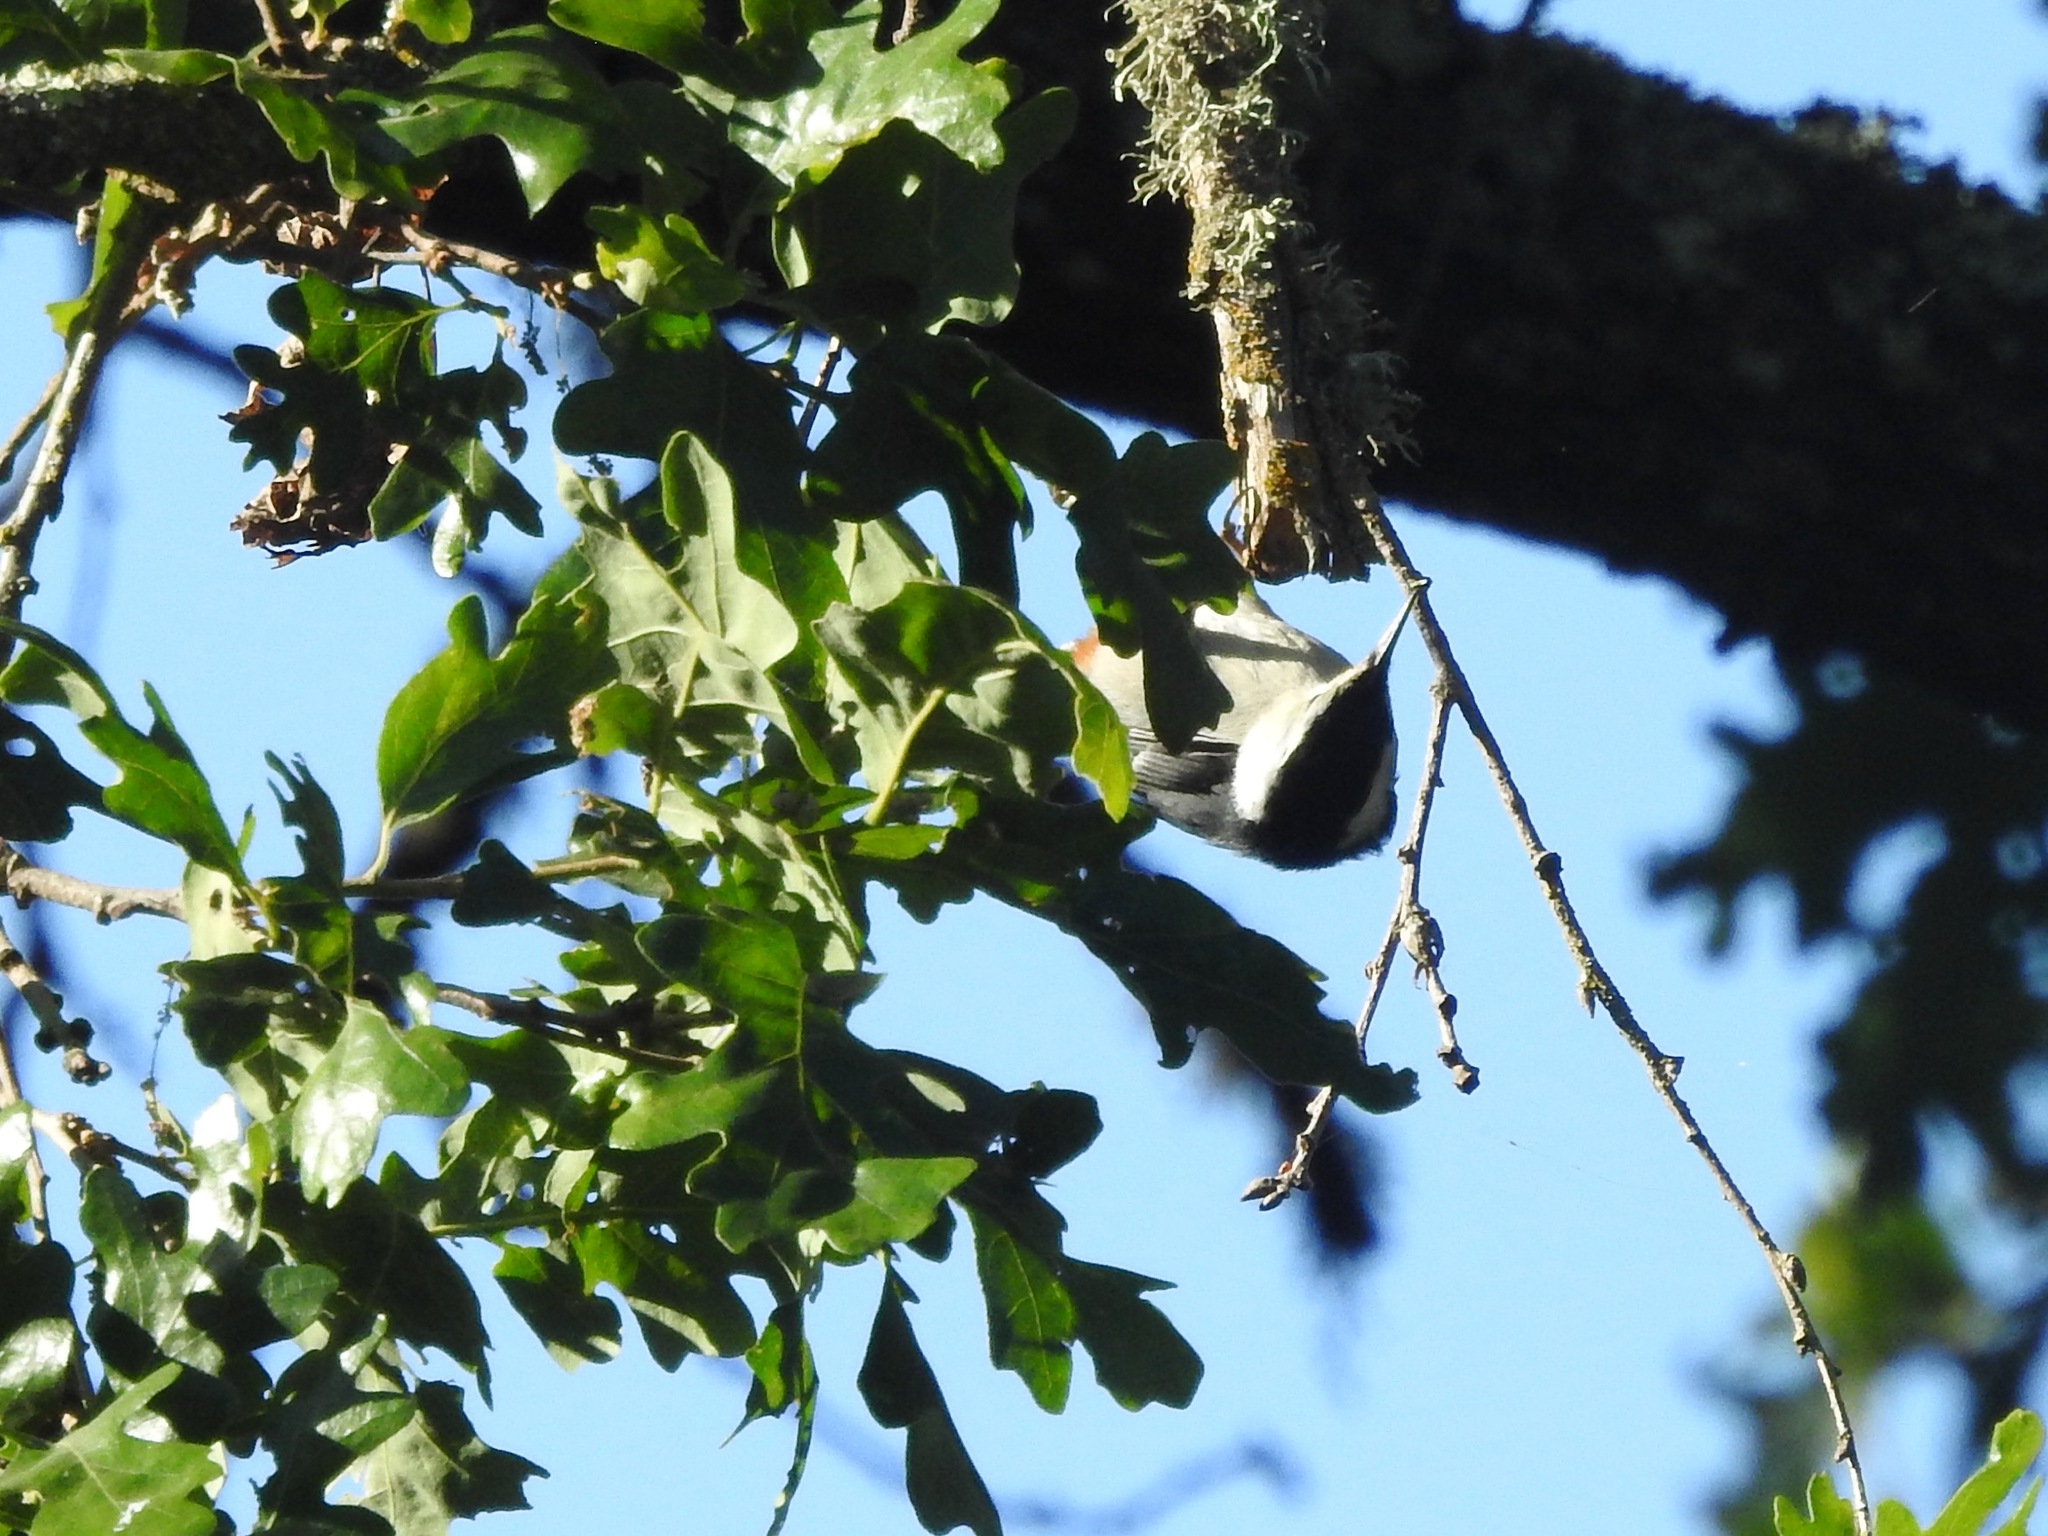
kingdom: Animalia
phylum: Chordata
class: Aves
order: Passeriformes
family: Sittidae
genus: Sitta
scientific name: Sitta carolinensis
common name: White-breasted nuthatch
